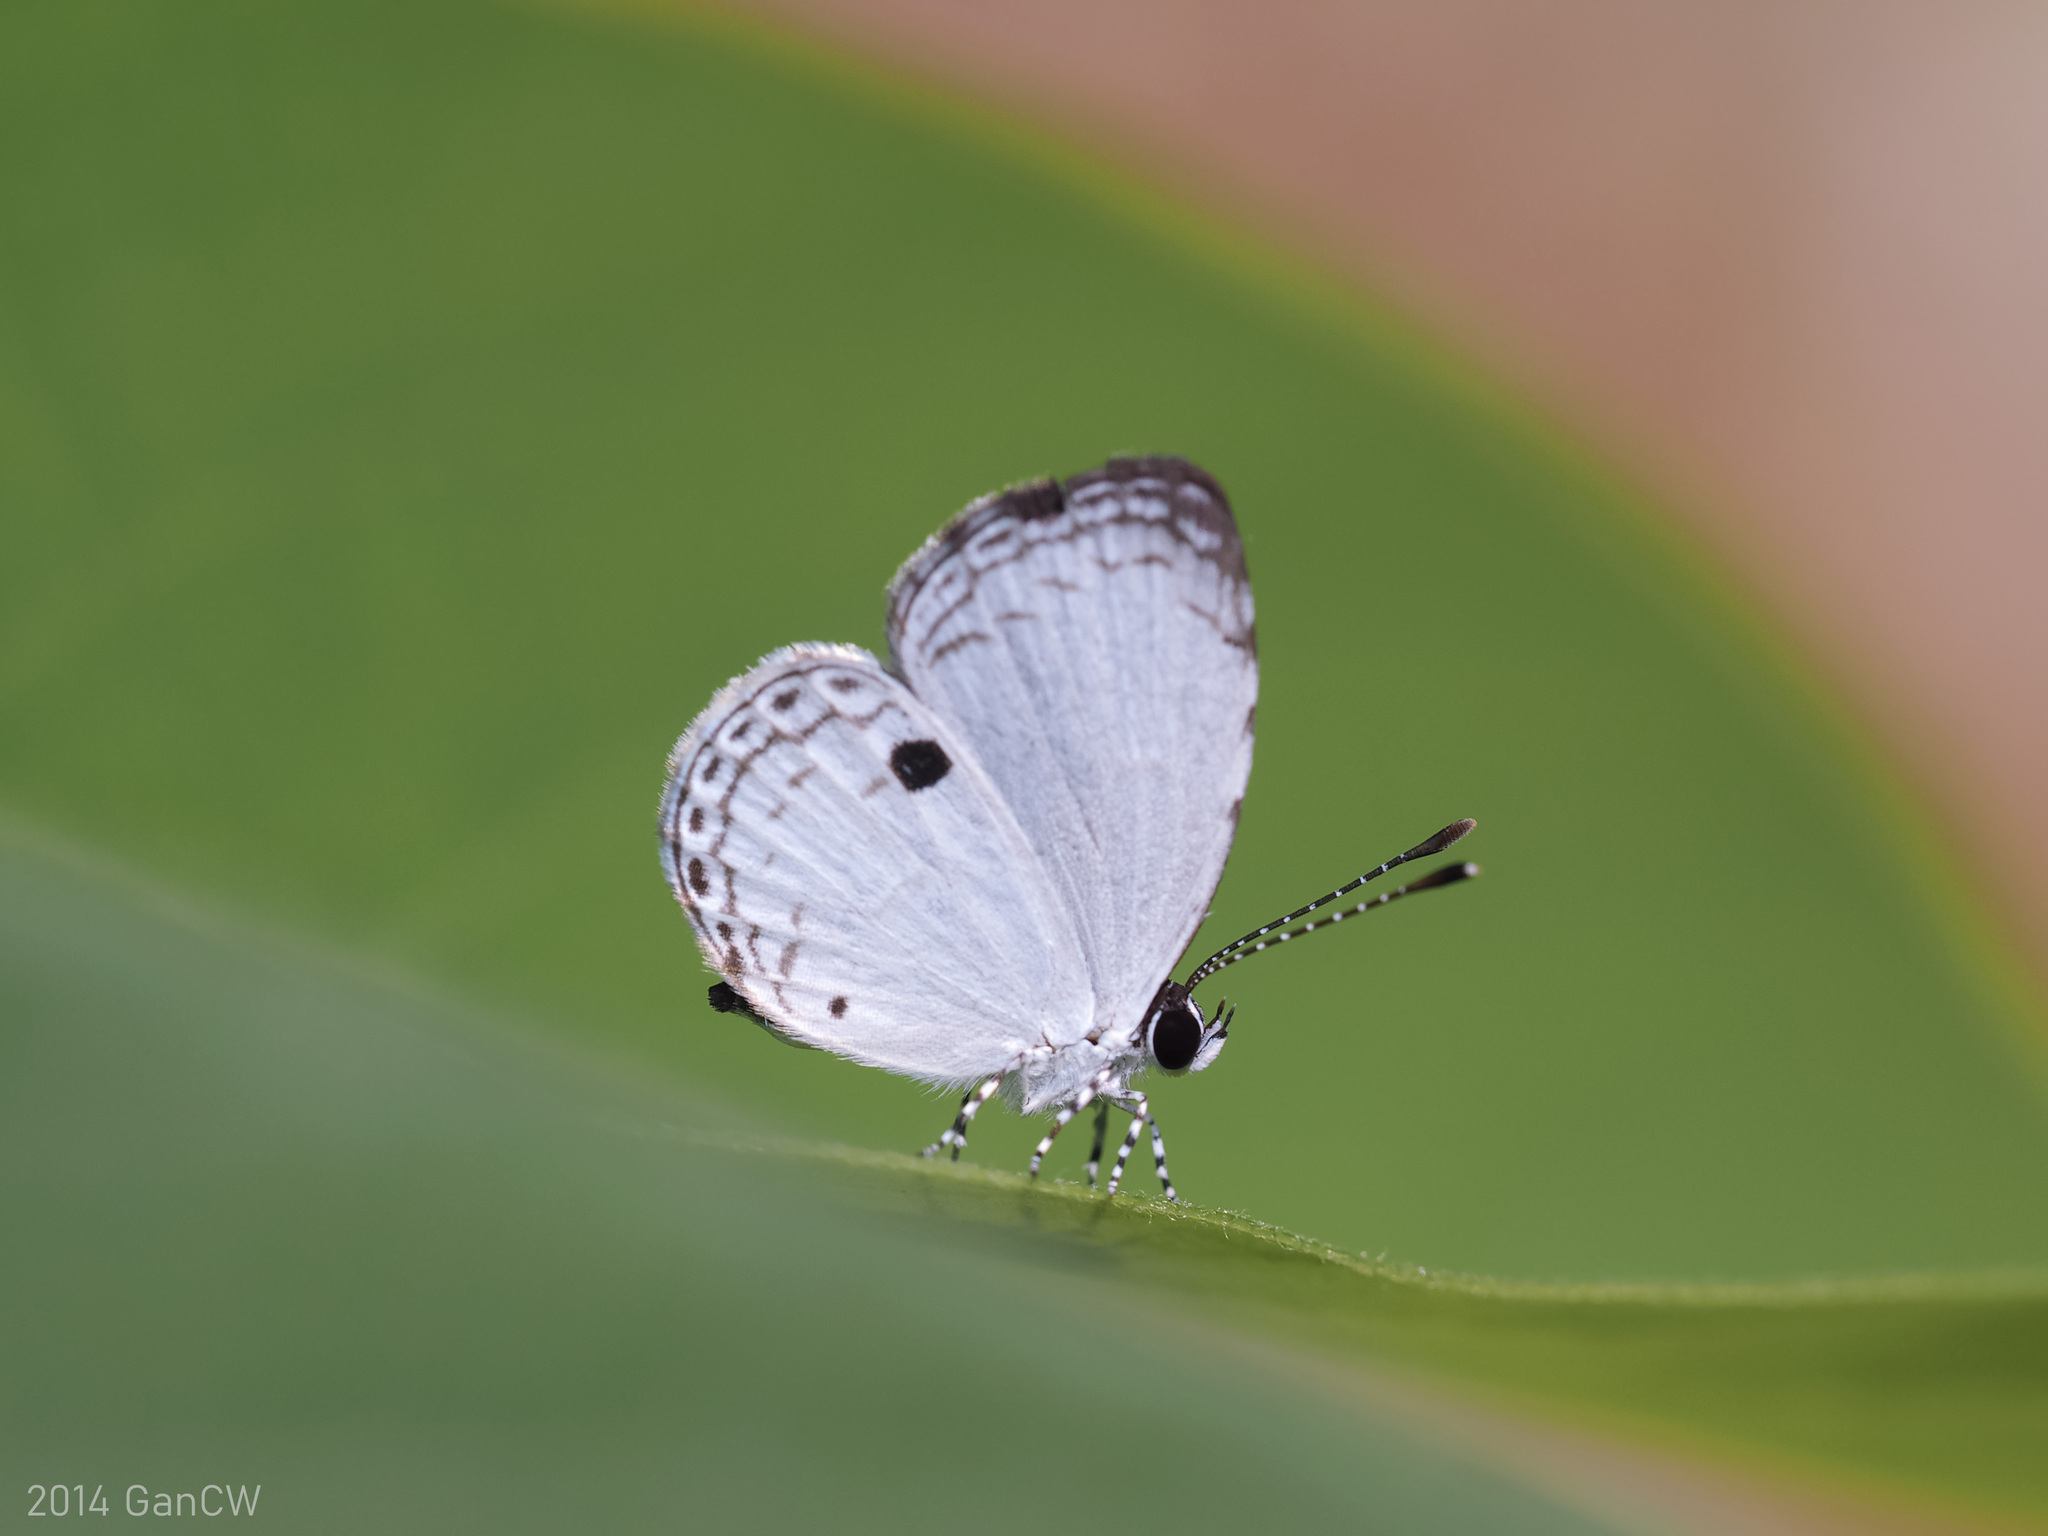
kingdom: Animalia
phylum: Arthropoda
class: Insecta
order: Lepidoptera
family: Lycaenidae
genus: Neopithecops
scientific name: Neopithecops zalmora
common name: Quaker
